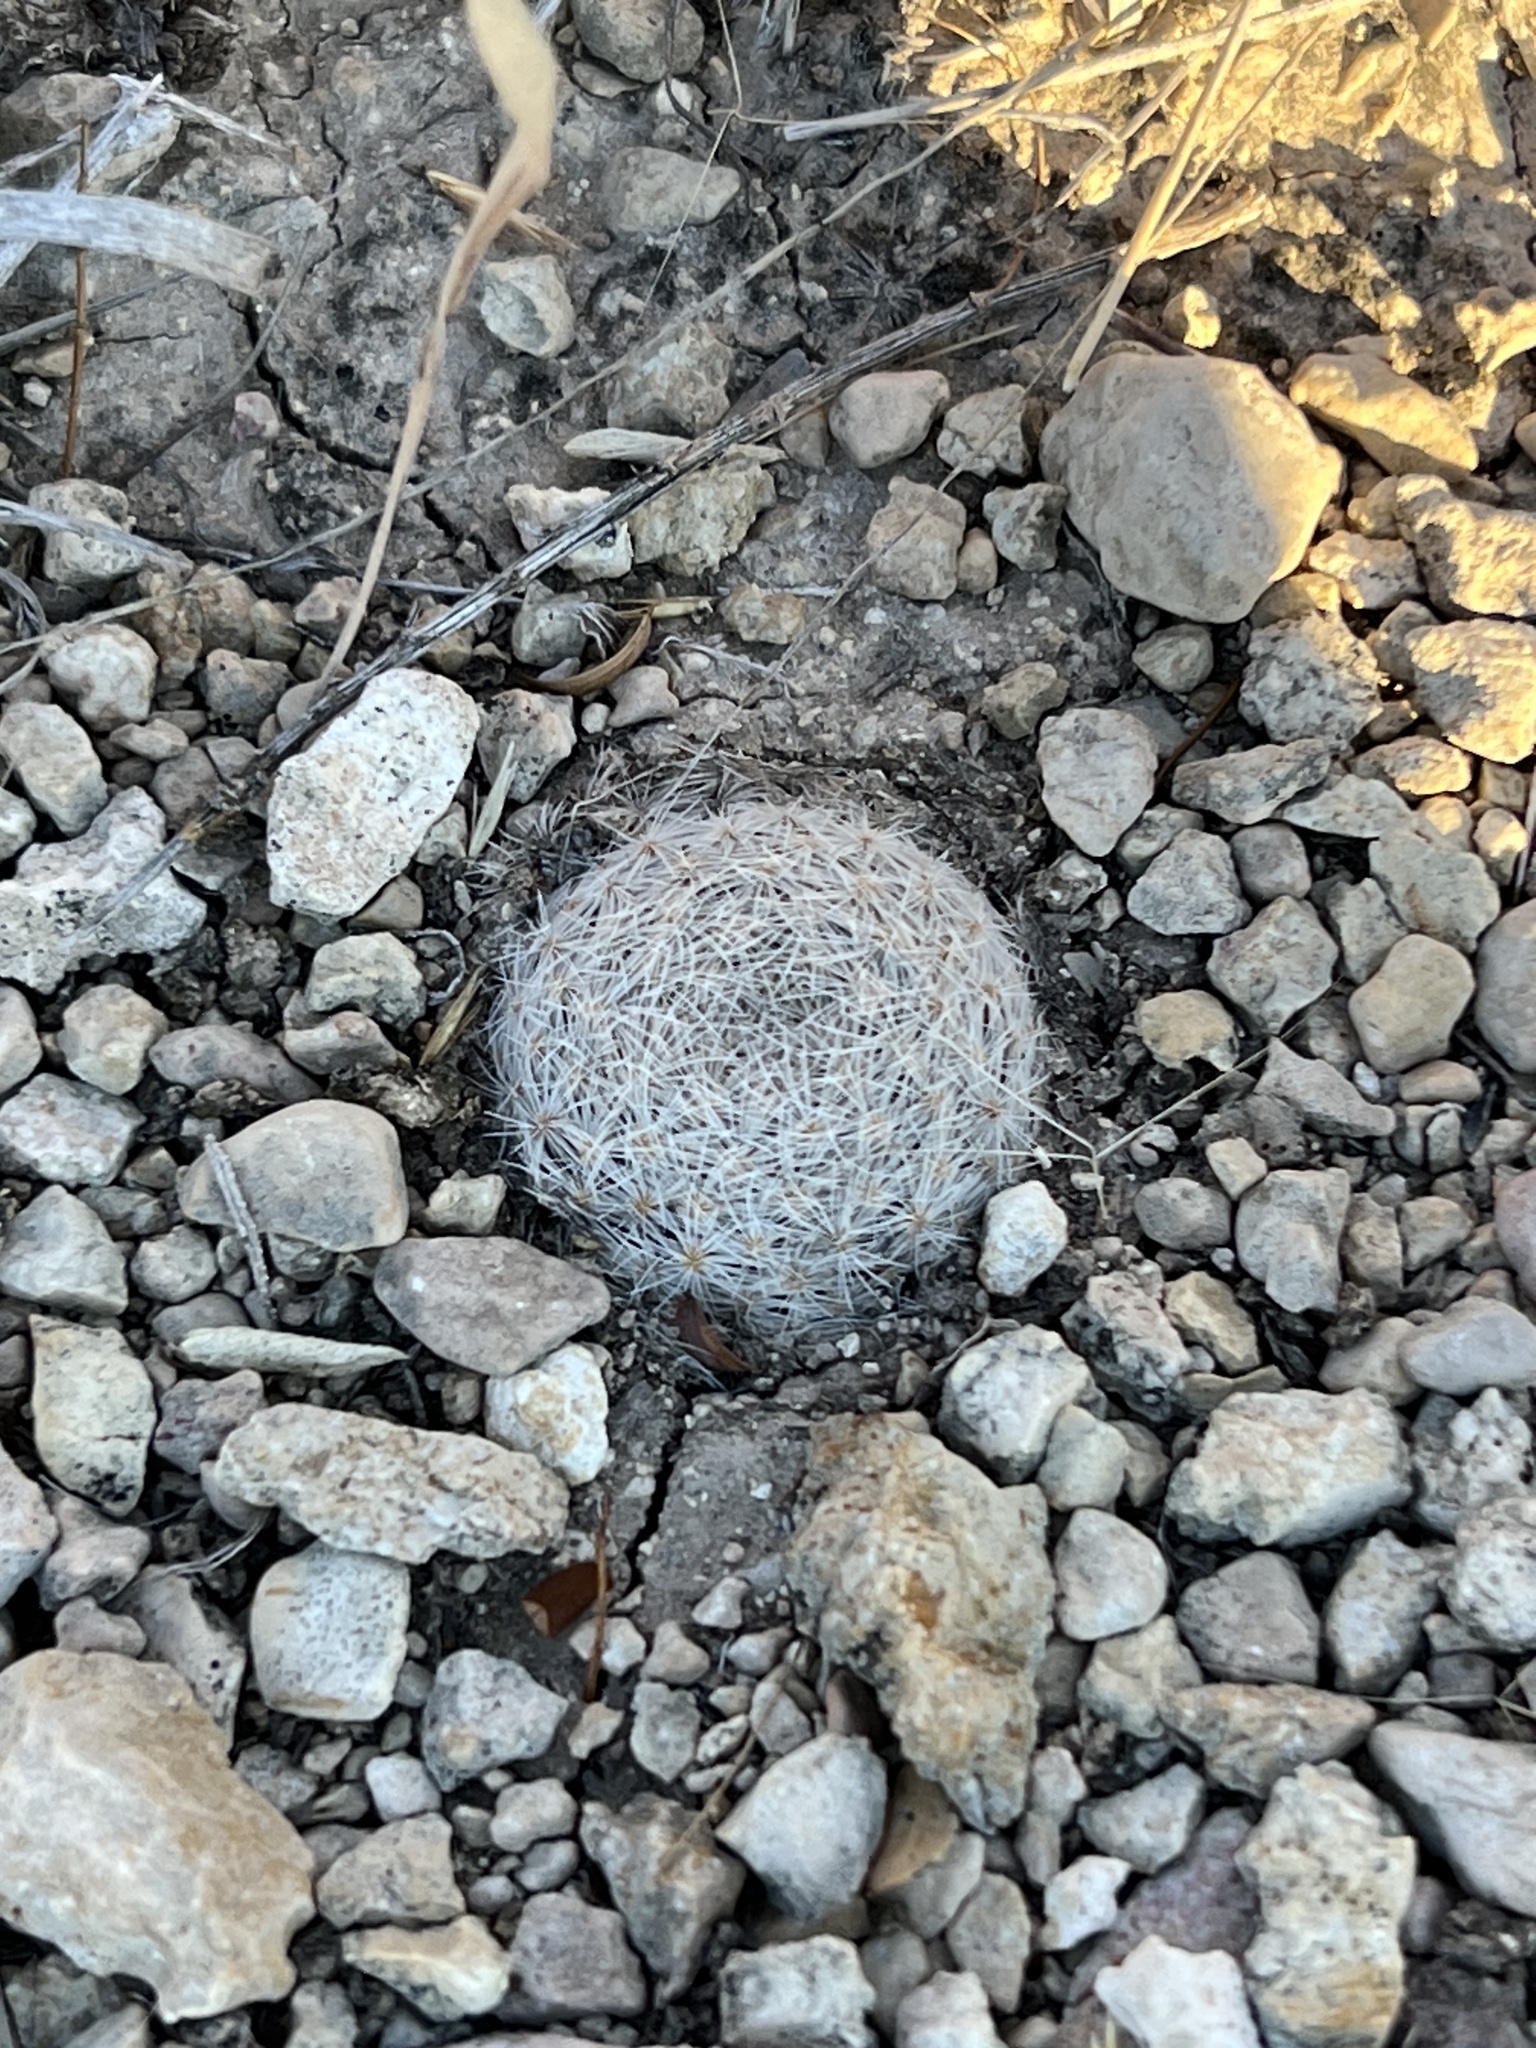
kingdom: Plantae
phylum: Tracheophyta
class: Magnoliopsida
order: Caryophyllales
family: Cactaceae
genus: Mammillaria
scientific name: Mammillaria lasiacantha
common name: Lace-spine nipple cactus
